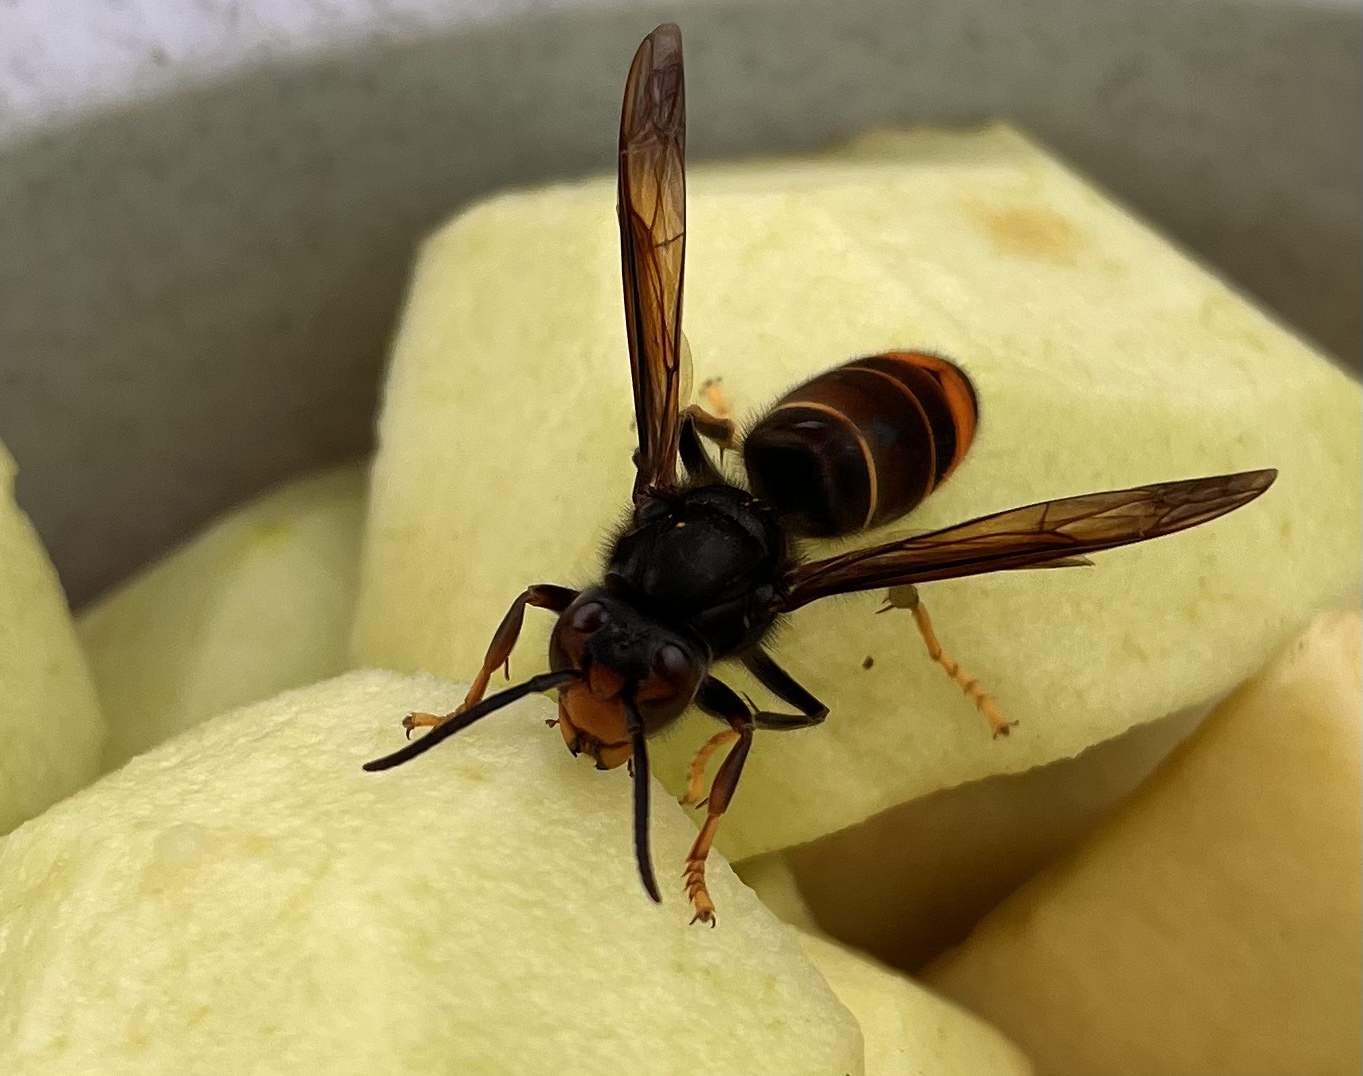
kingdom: Animalia
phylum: Arthropoda
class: Insecta
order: Hymenoptera
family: Vespidae
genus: Vespa
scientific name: Vespa velutina
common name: Asian hornet
